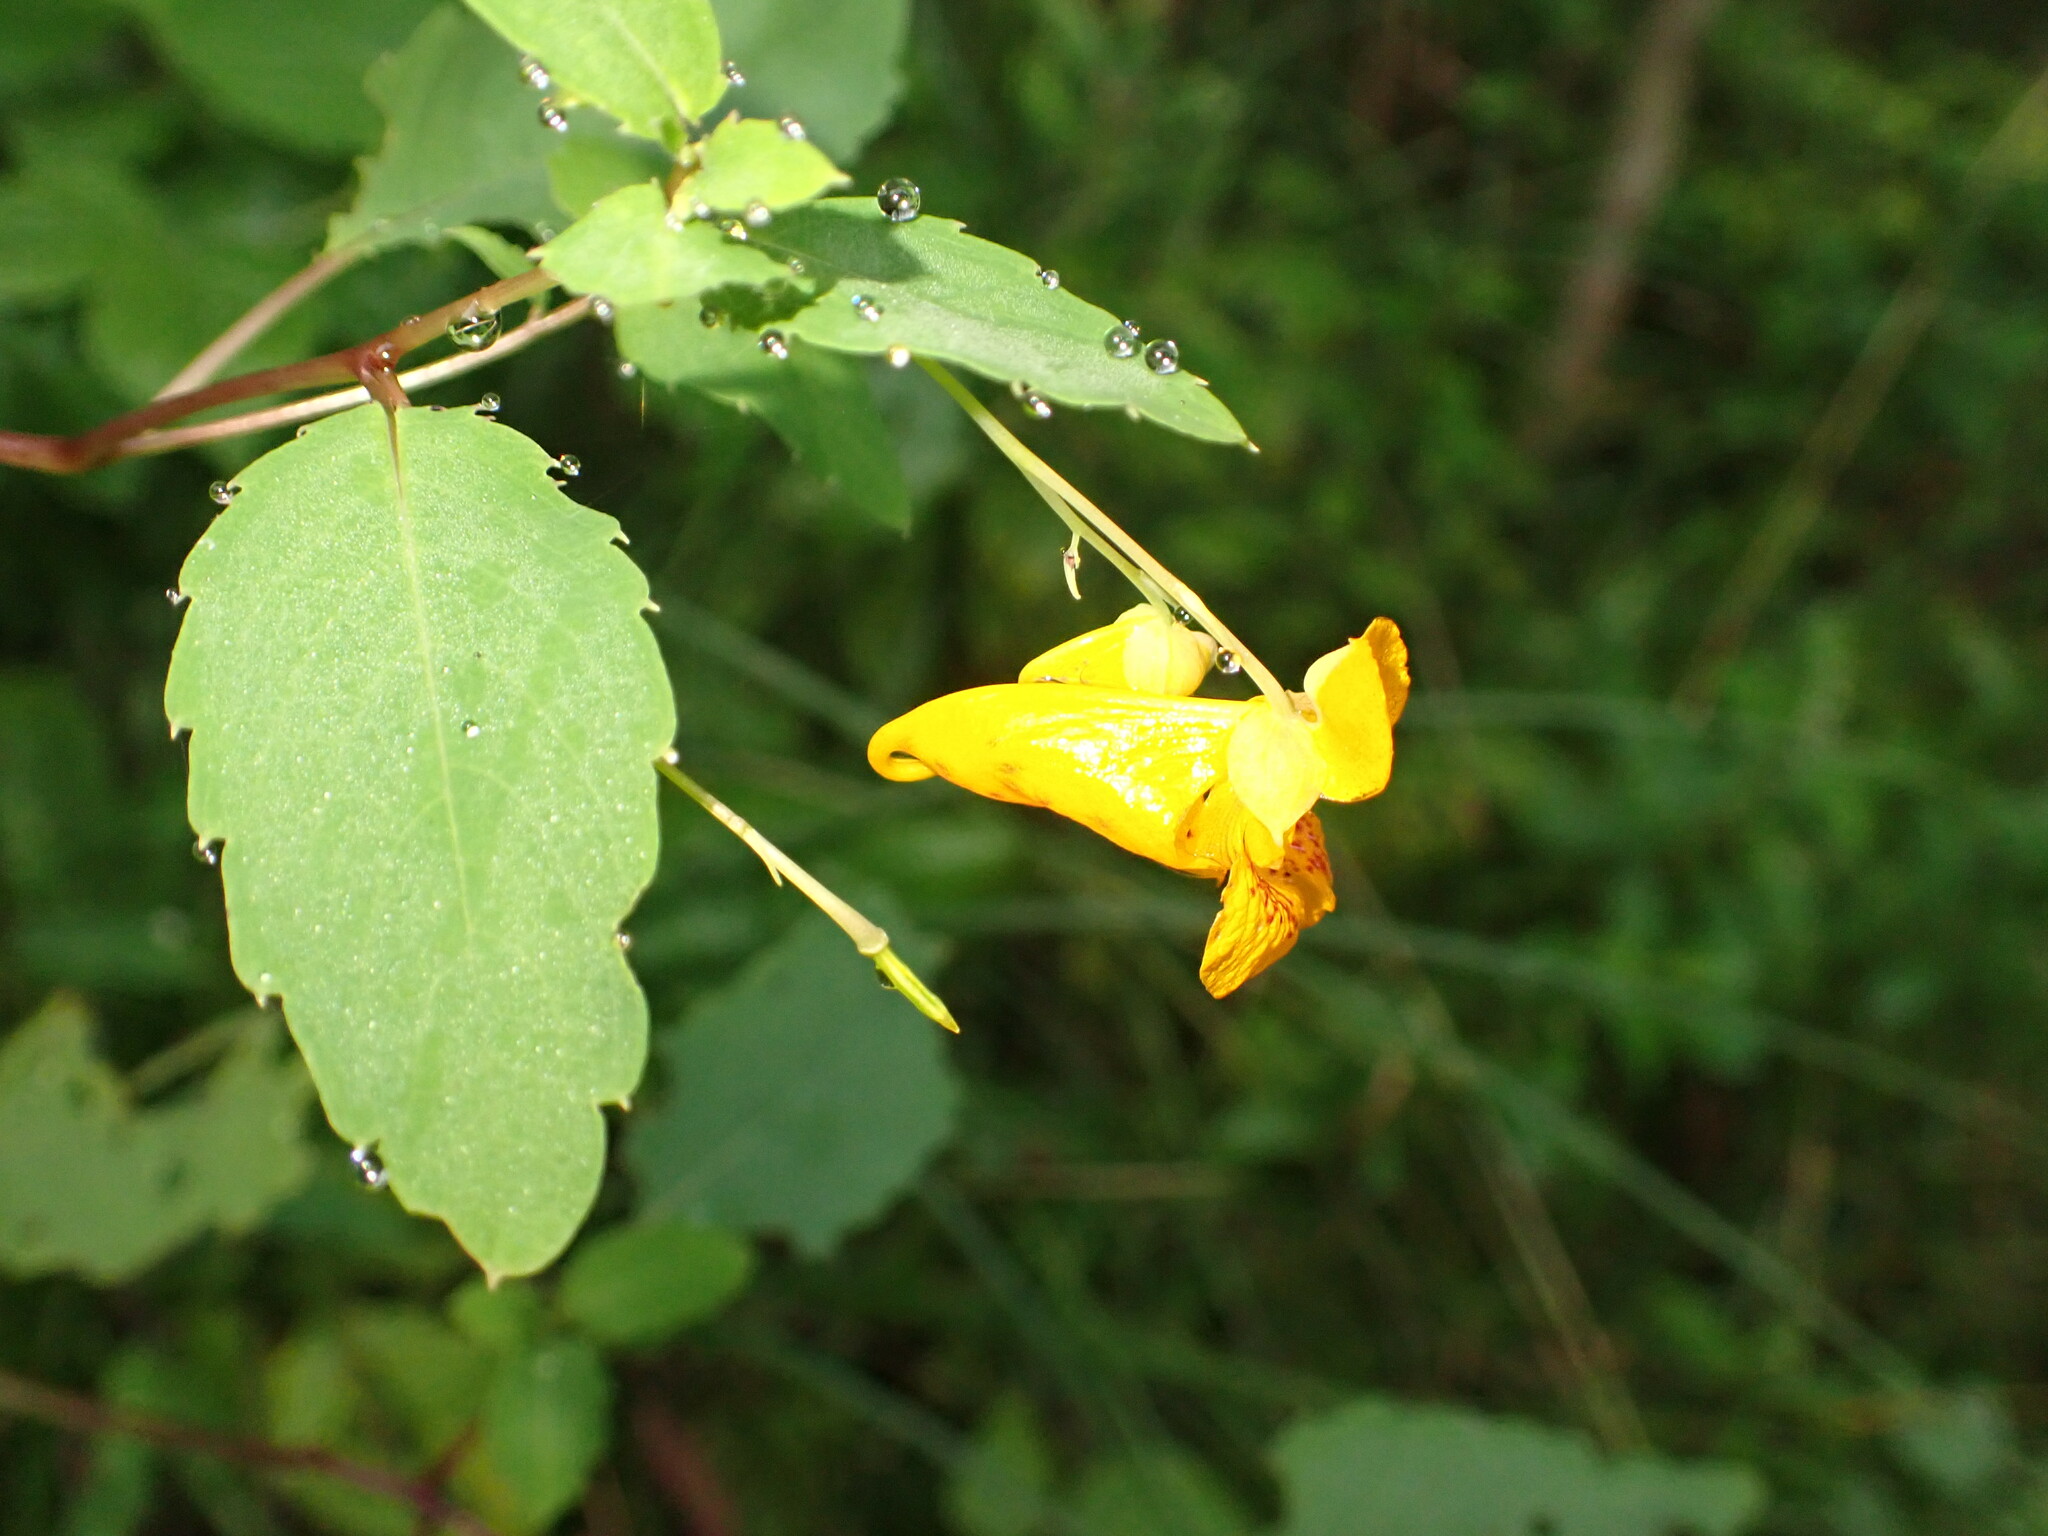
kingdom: Plantae
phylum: Tracheophyta
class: Magnoliopsida
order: Ericales
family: Balsaminaceae
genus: Impatiens
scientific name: Impatiens capensis
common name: Orange balsam
